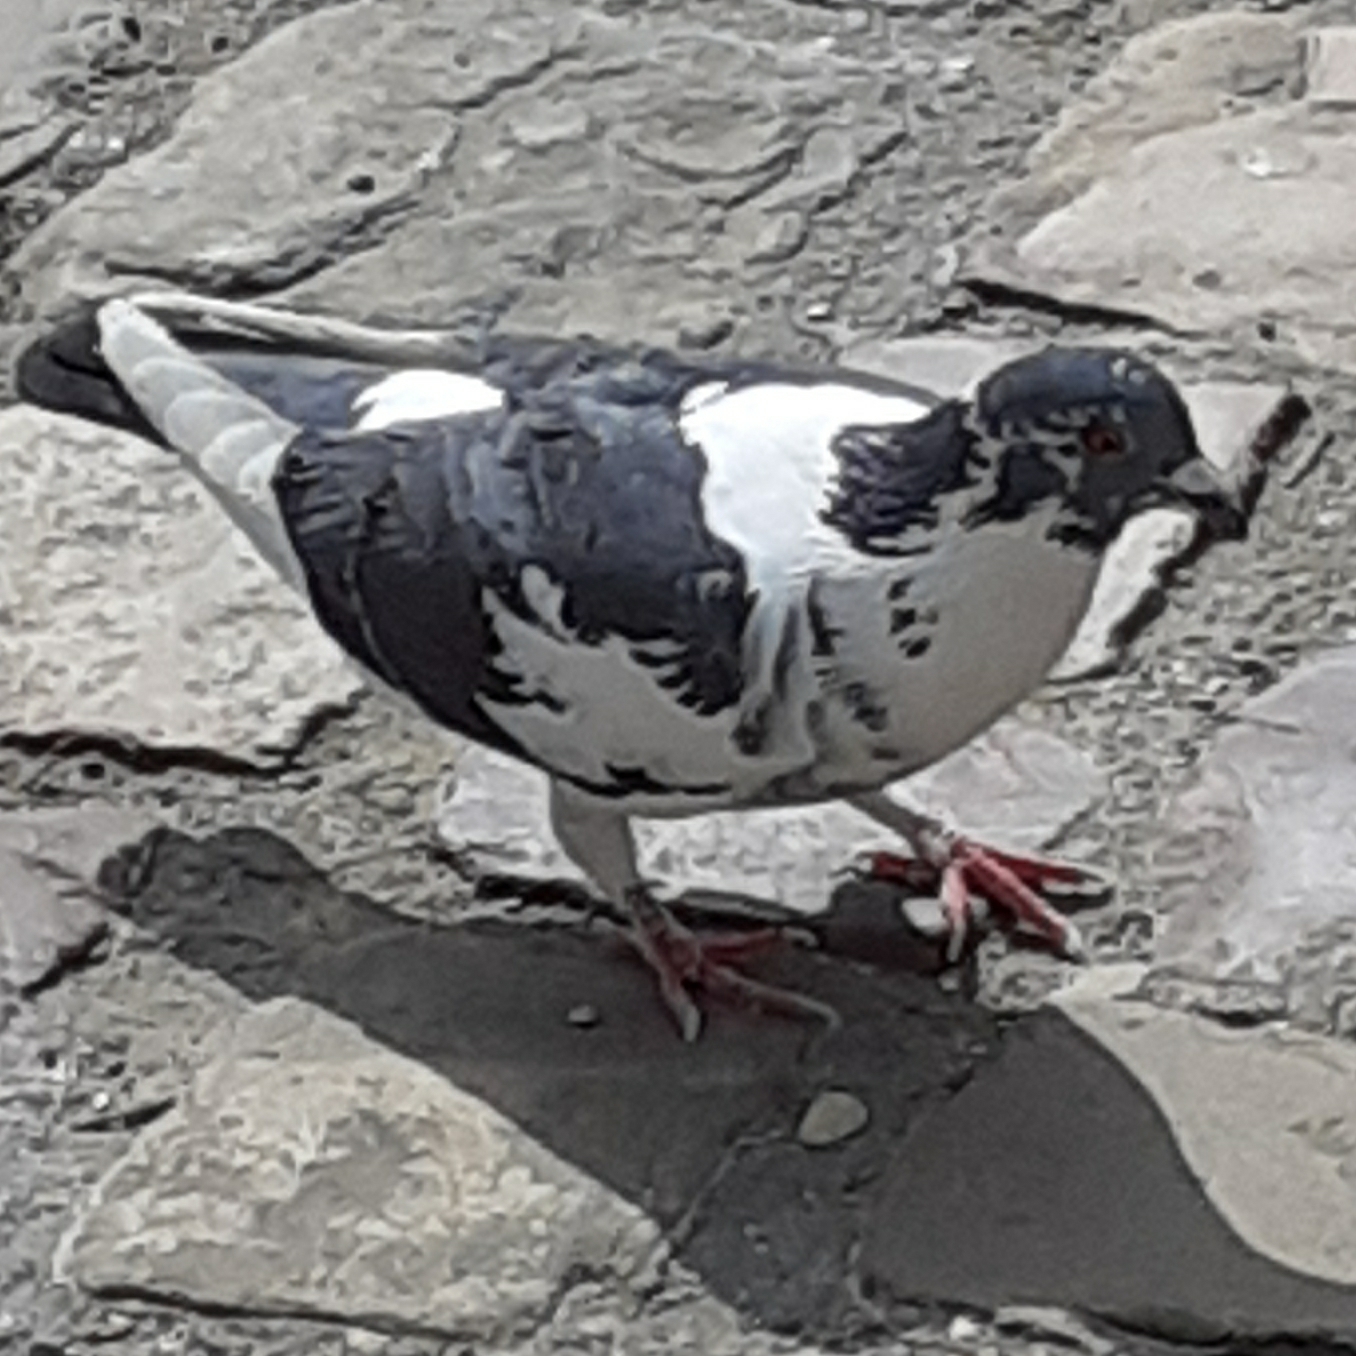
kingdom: Animalia
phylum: Chordata
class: Aves
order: Columbiformes
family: Columbidae
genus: Columba
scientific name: Columba livia
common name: Rock pigeon
